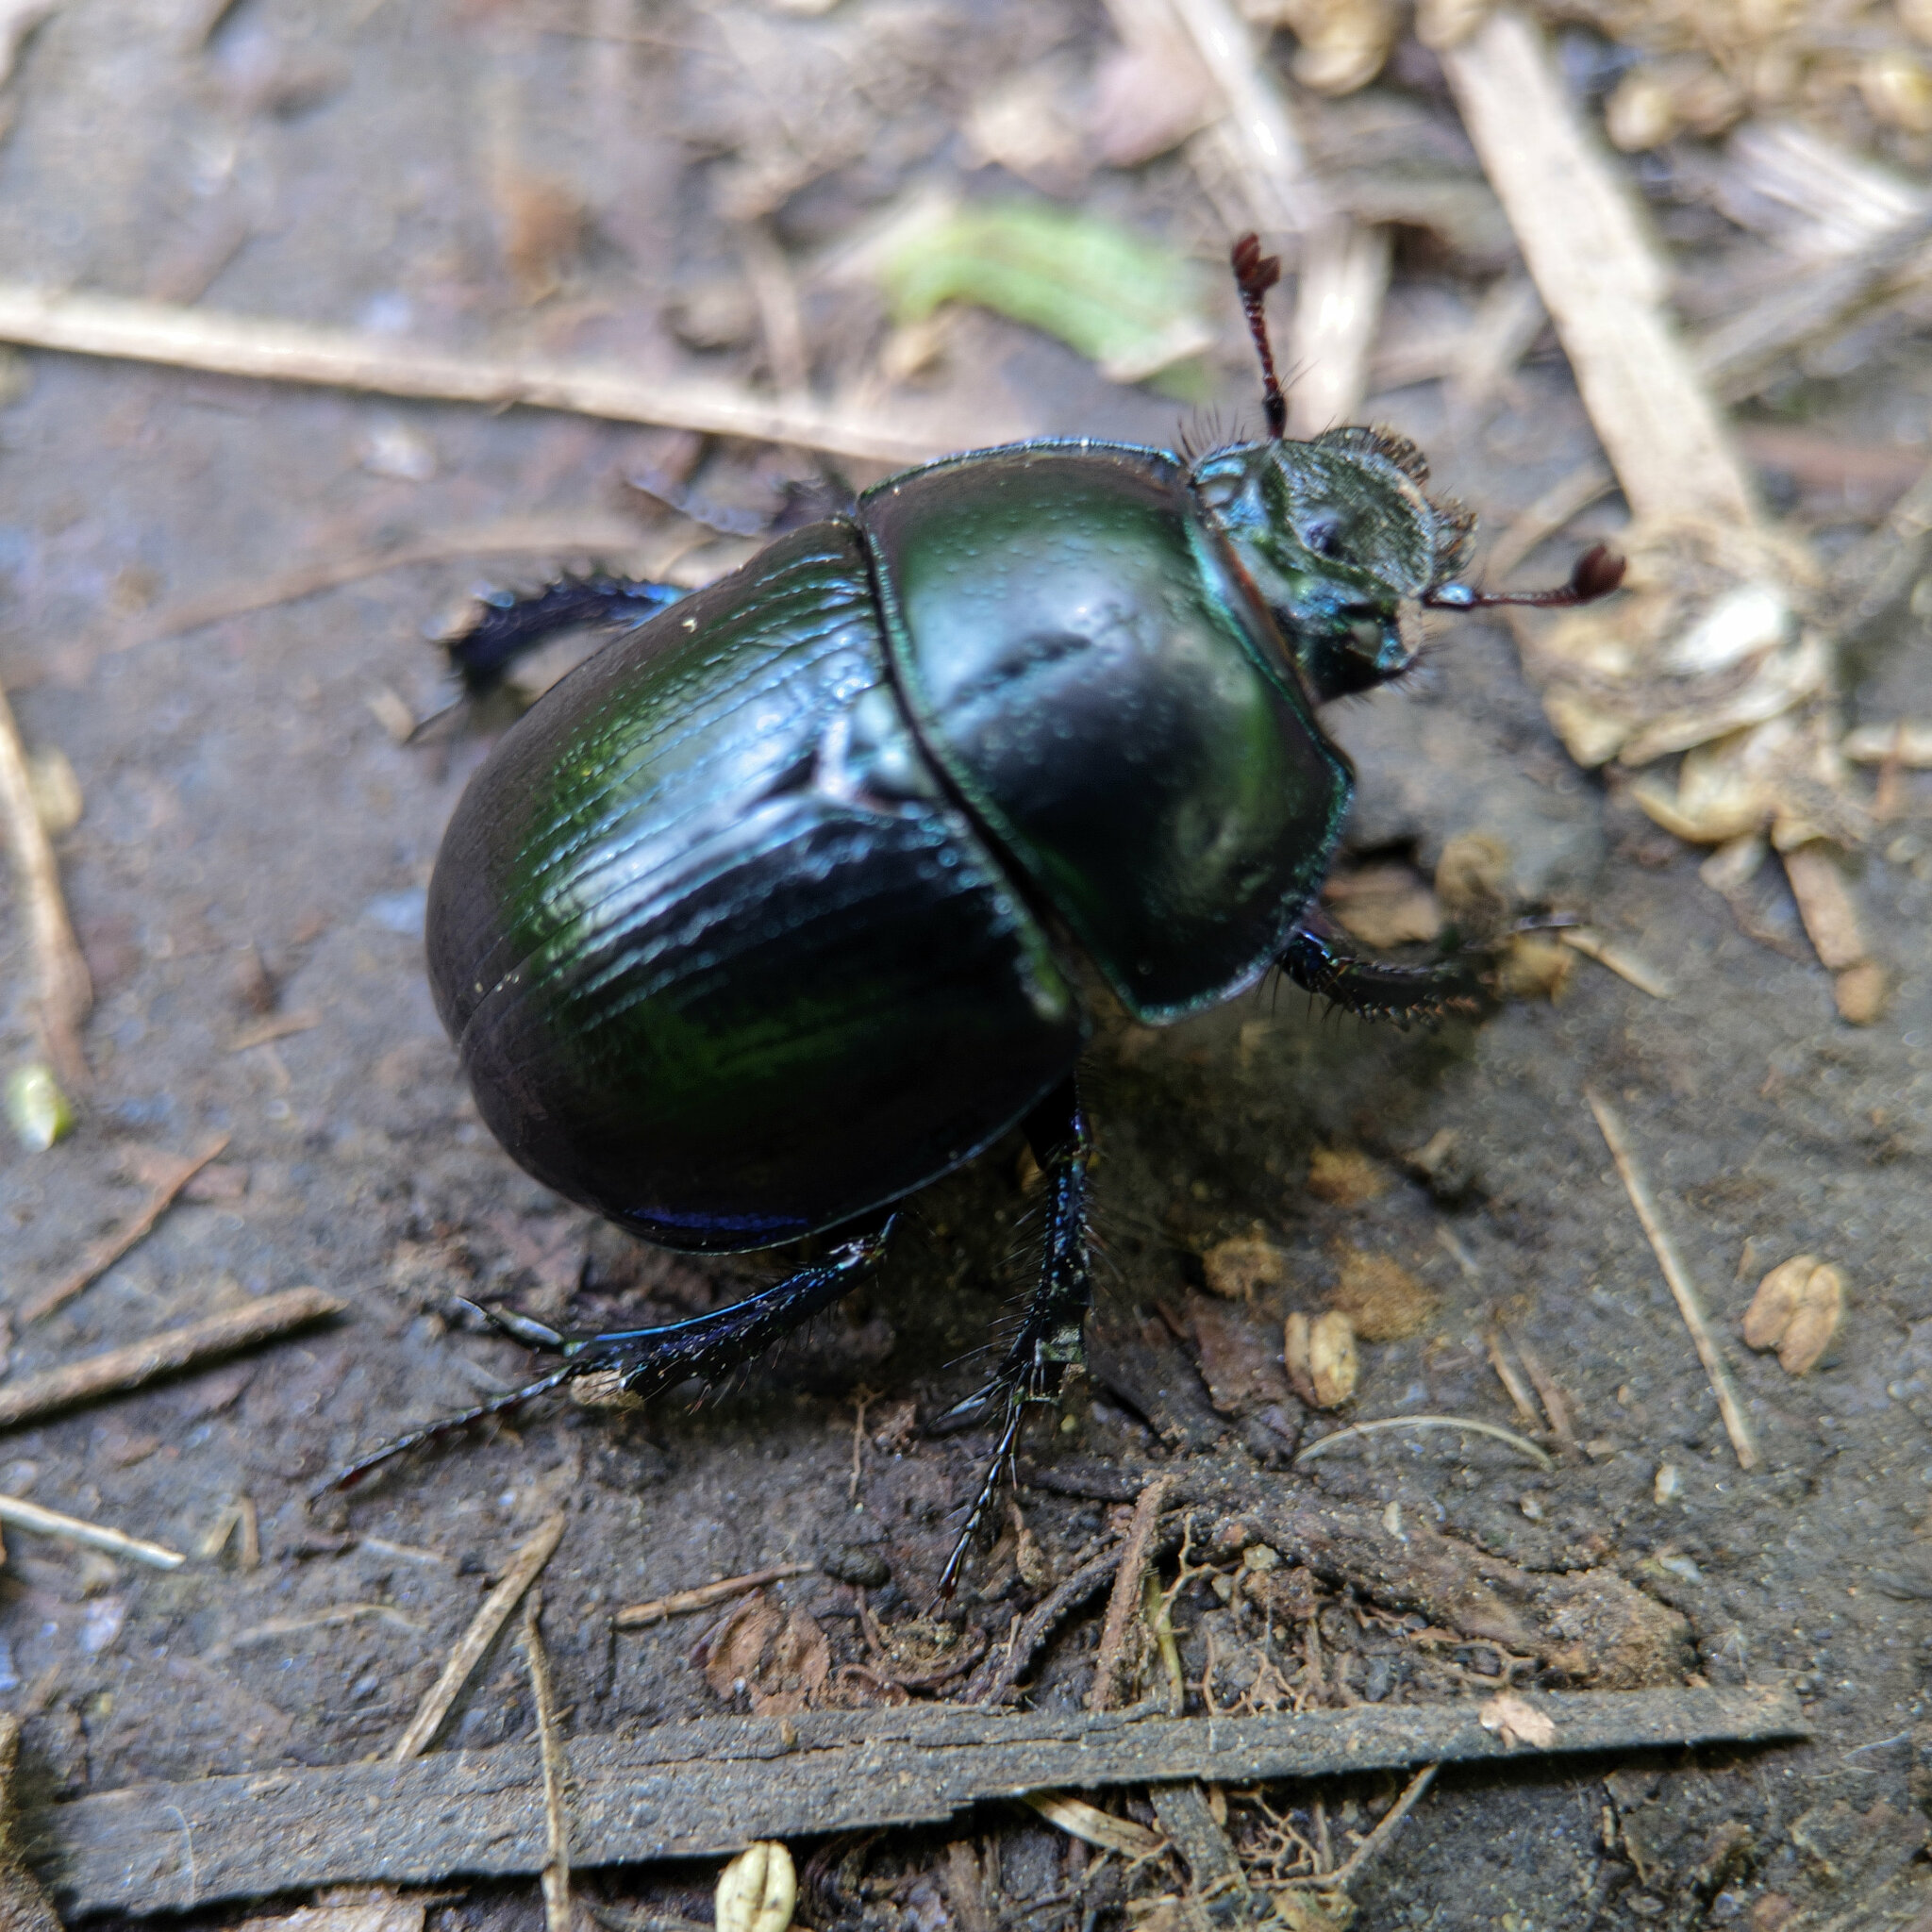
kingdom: Animalia
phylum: Arthropoda
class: Insecta
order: Coleoptera
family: Geotrupidae
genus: Anoplotrupes
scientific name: Anoplotrupes stercorosus
